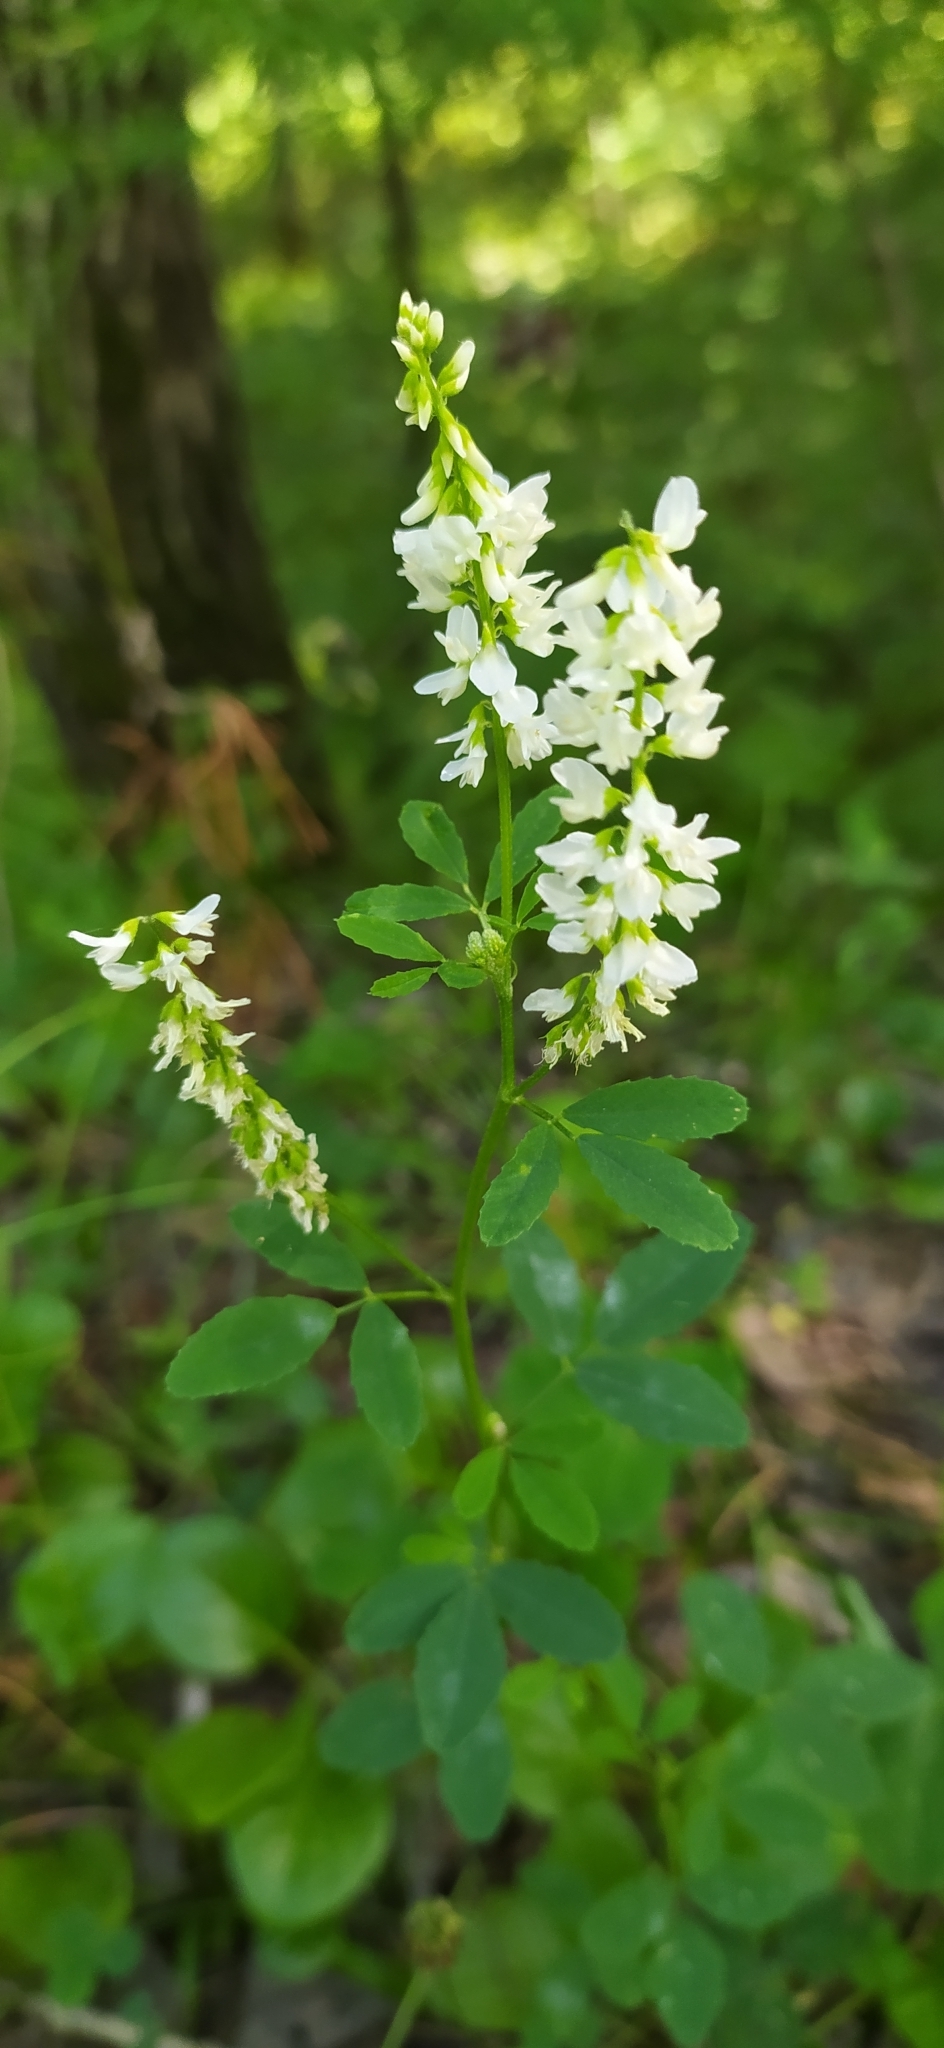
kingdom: Plantae
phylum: Tracheophyta
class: Magnoliopsida
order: Fabales
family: Fabaceae
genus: Melilotus
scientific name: Melilotus albus
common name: White melilot
